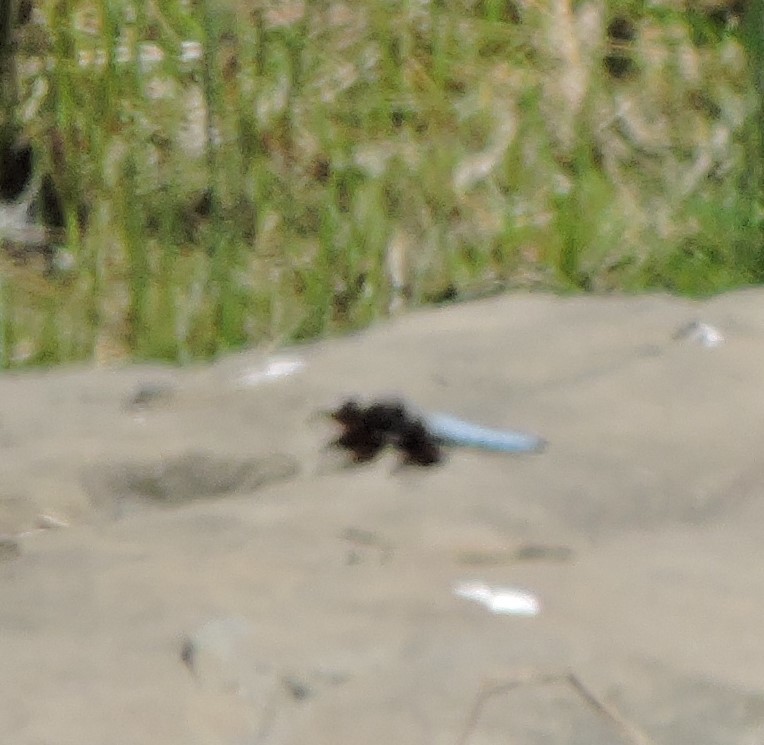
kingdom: Animalia
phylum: Arthropoda
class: Insecta
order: Odonata
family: Libellulidae
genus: Plathemis
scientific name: Plathemis lydia
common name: Common whitetail
